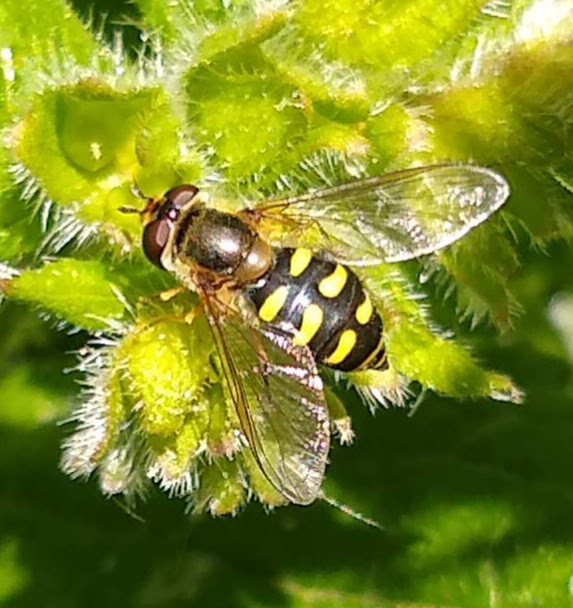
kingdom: Animalia
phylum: Arthropoda
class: Insecta
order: Diptera
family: Syrphidae
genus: Eupeodes
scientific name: Eupeodes
